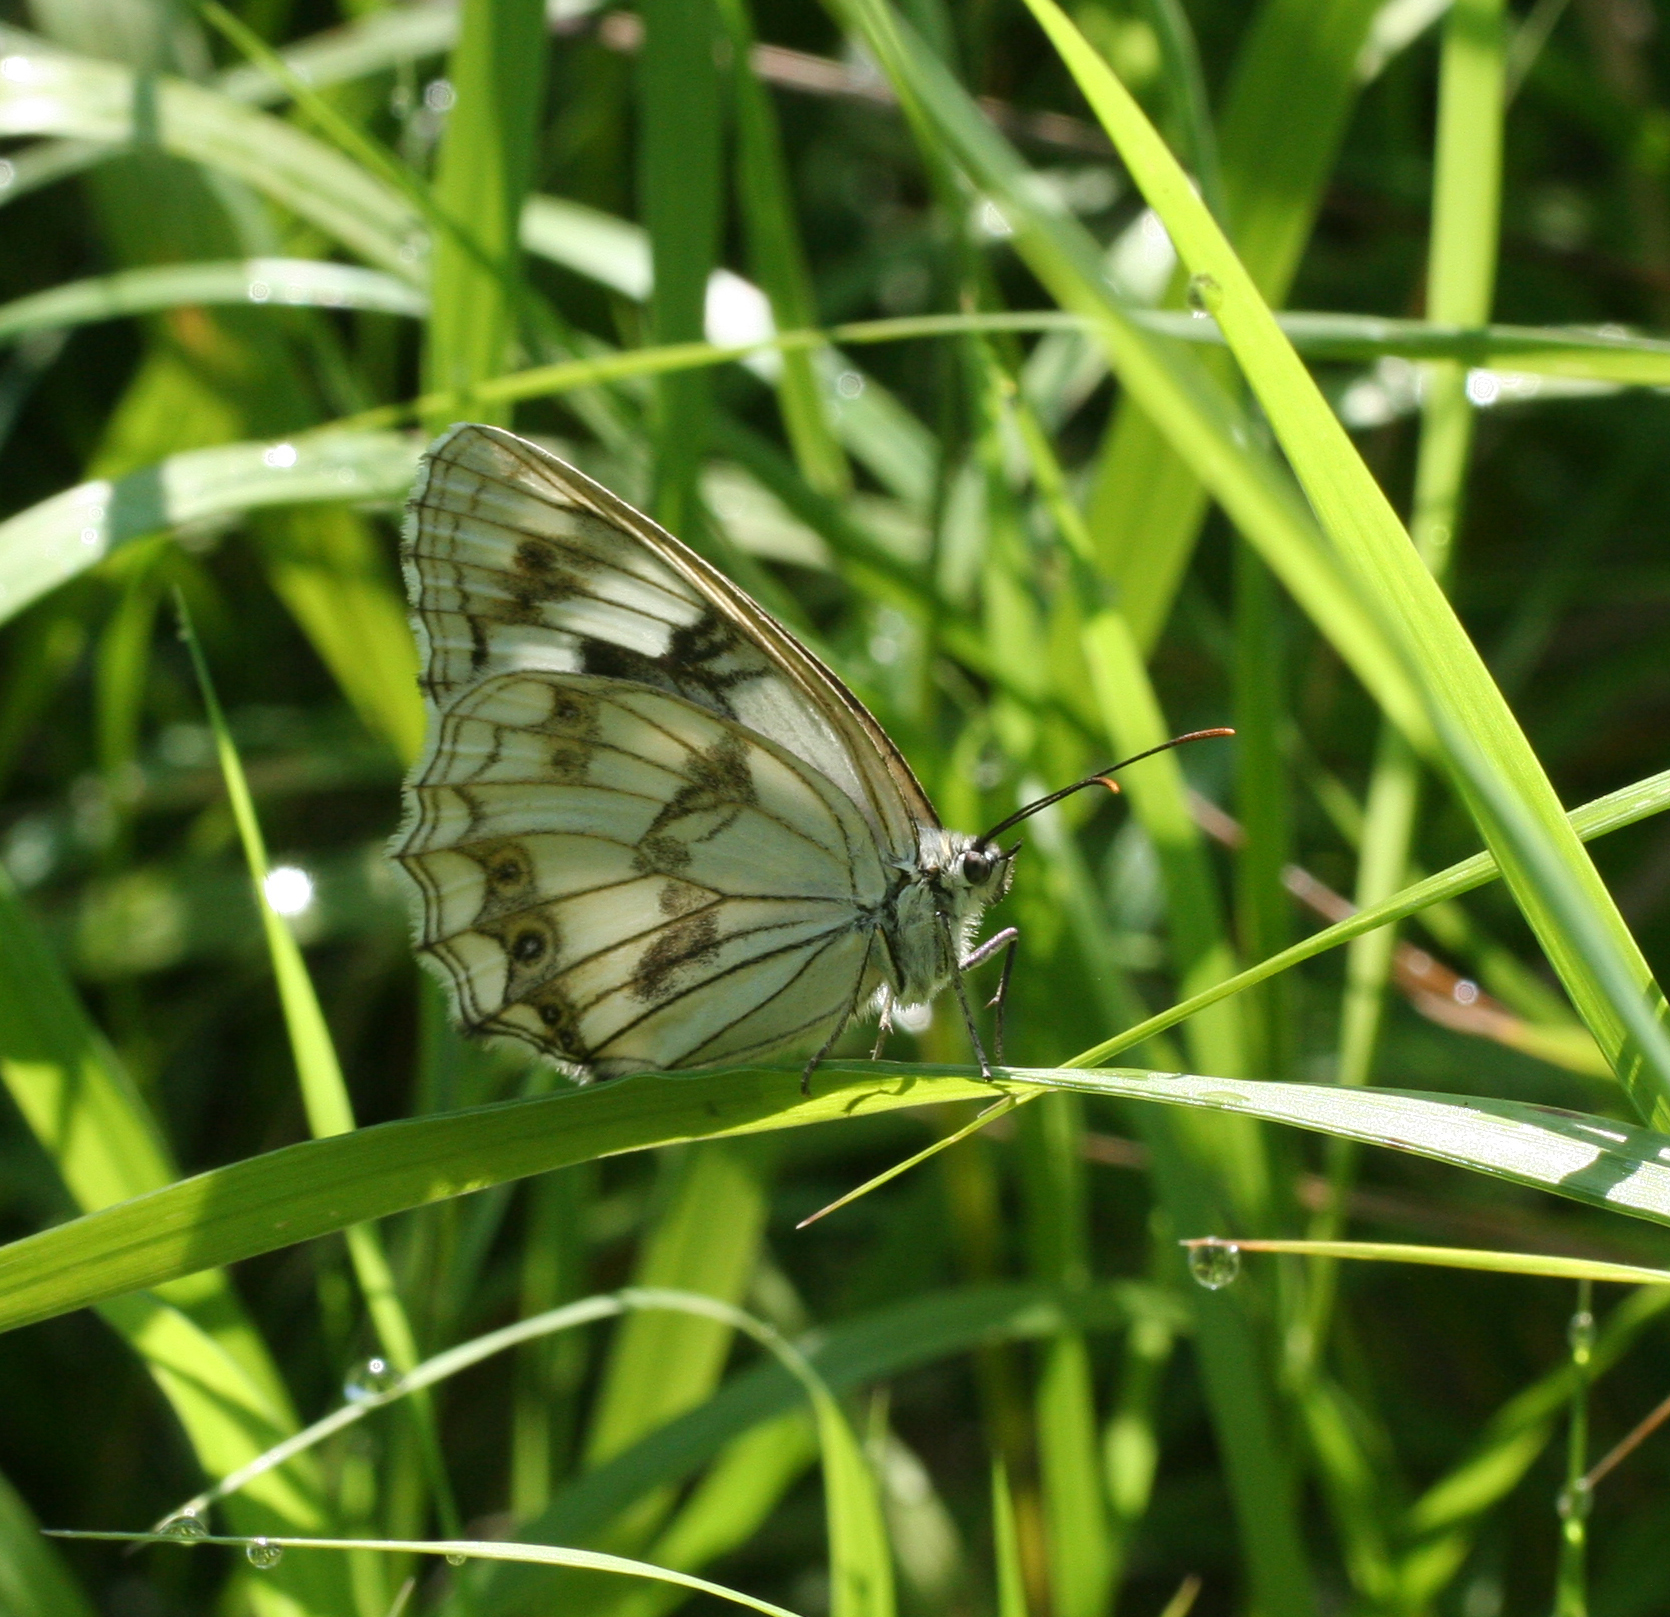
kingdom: Animalia
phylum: Arthropoda
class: Insecta
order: Lepidoptera
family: Nymphalidae
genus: Melanargia
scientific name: Melanargia halimede
